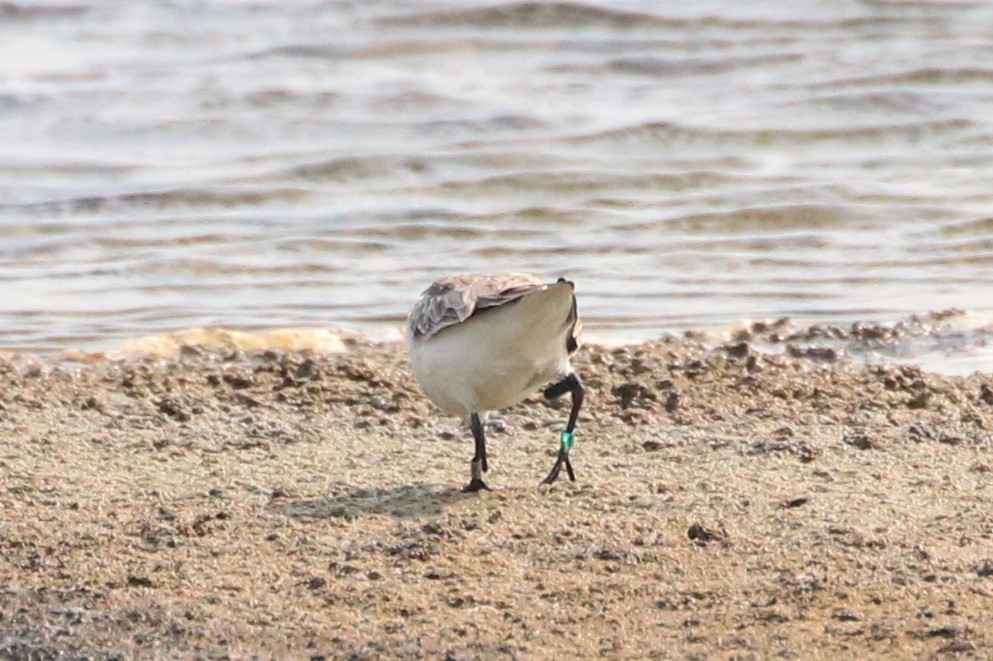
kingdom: Animalia
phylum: Chordata
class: Aves
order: Charadriiformes
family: Scolopacidae
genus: Calidris
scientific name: Calidris ruficollis
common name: Red-necked stint
